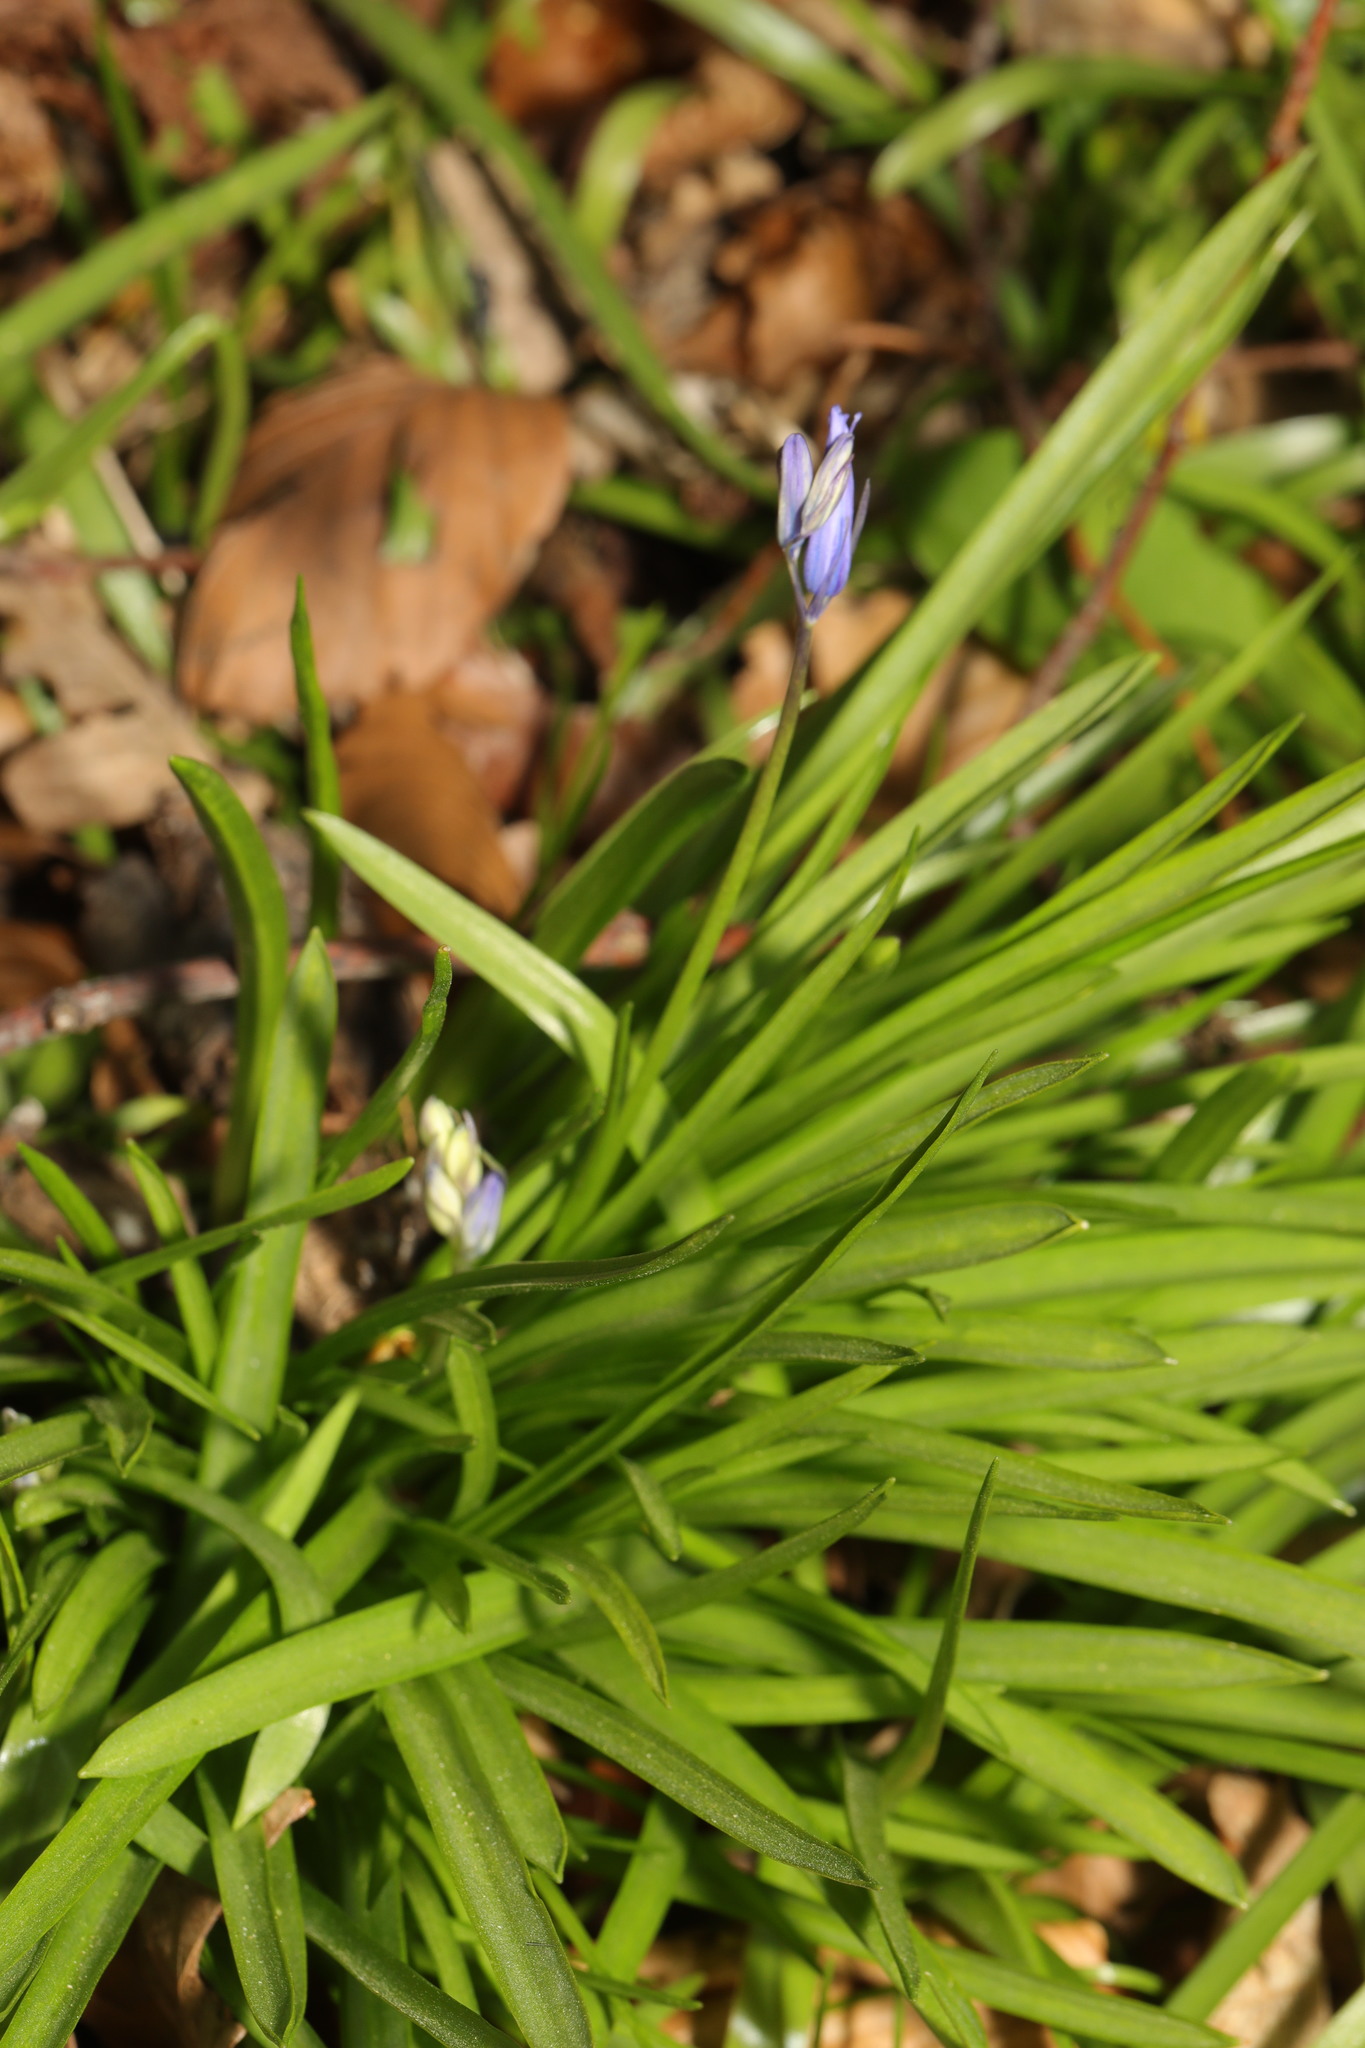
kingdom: Plantae
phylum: Tracheophyta
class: Liliopsida
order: Asparagales
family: Asparagaceae
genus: Hyacinthoides
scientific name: Hyacinthoides massartiana
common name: Hyacinthoides
